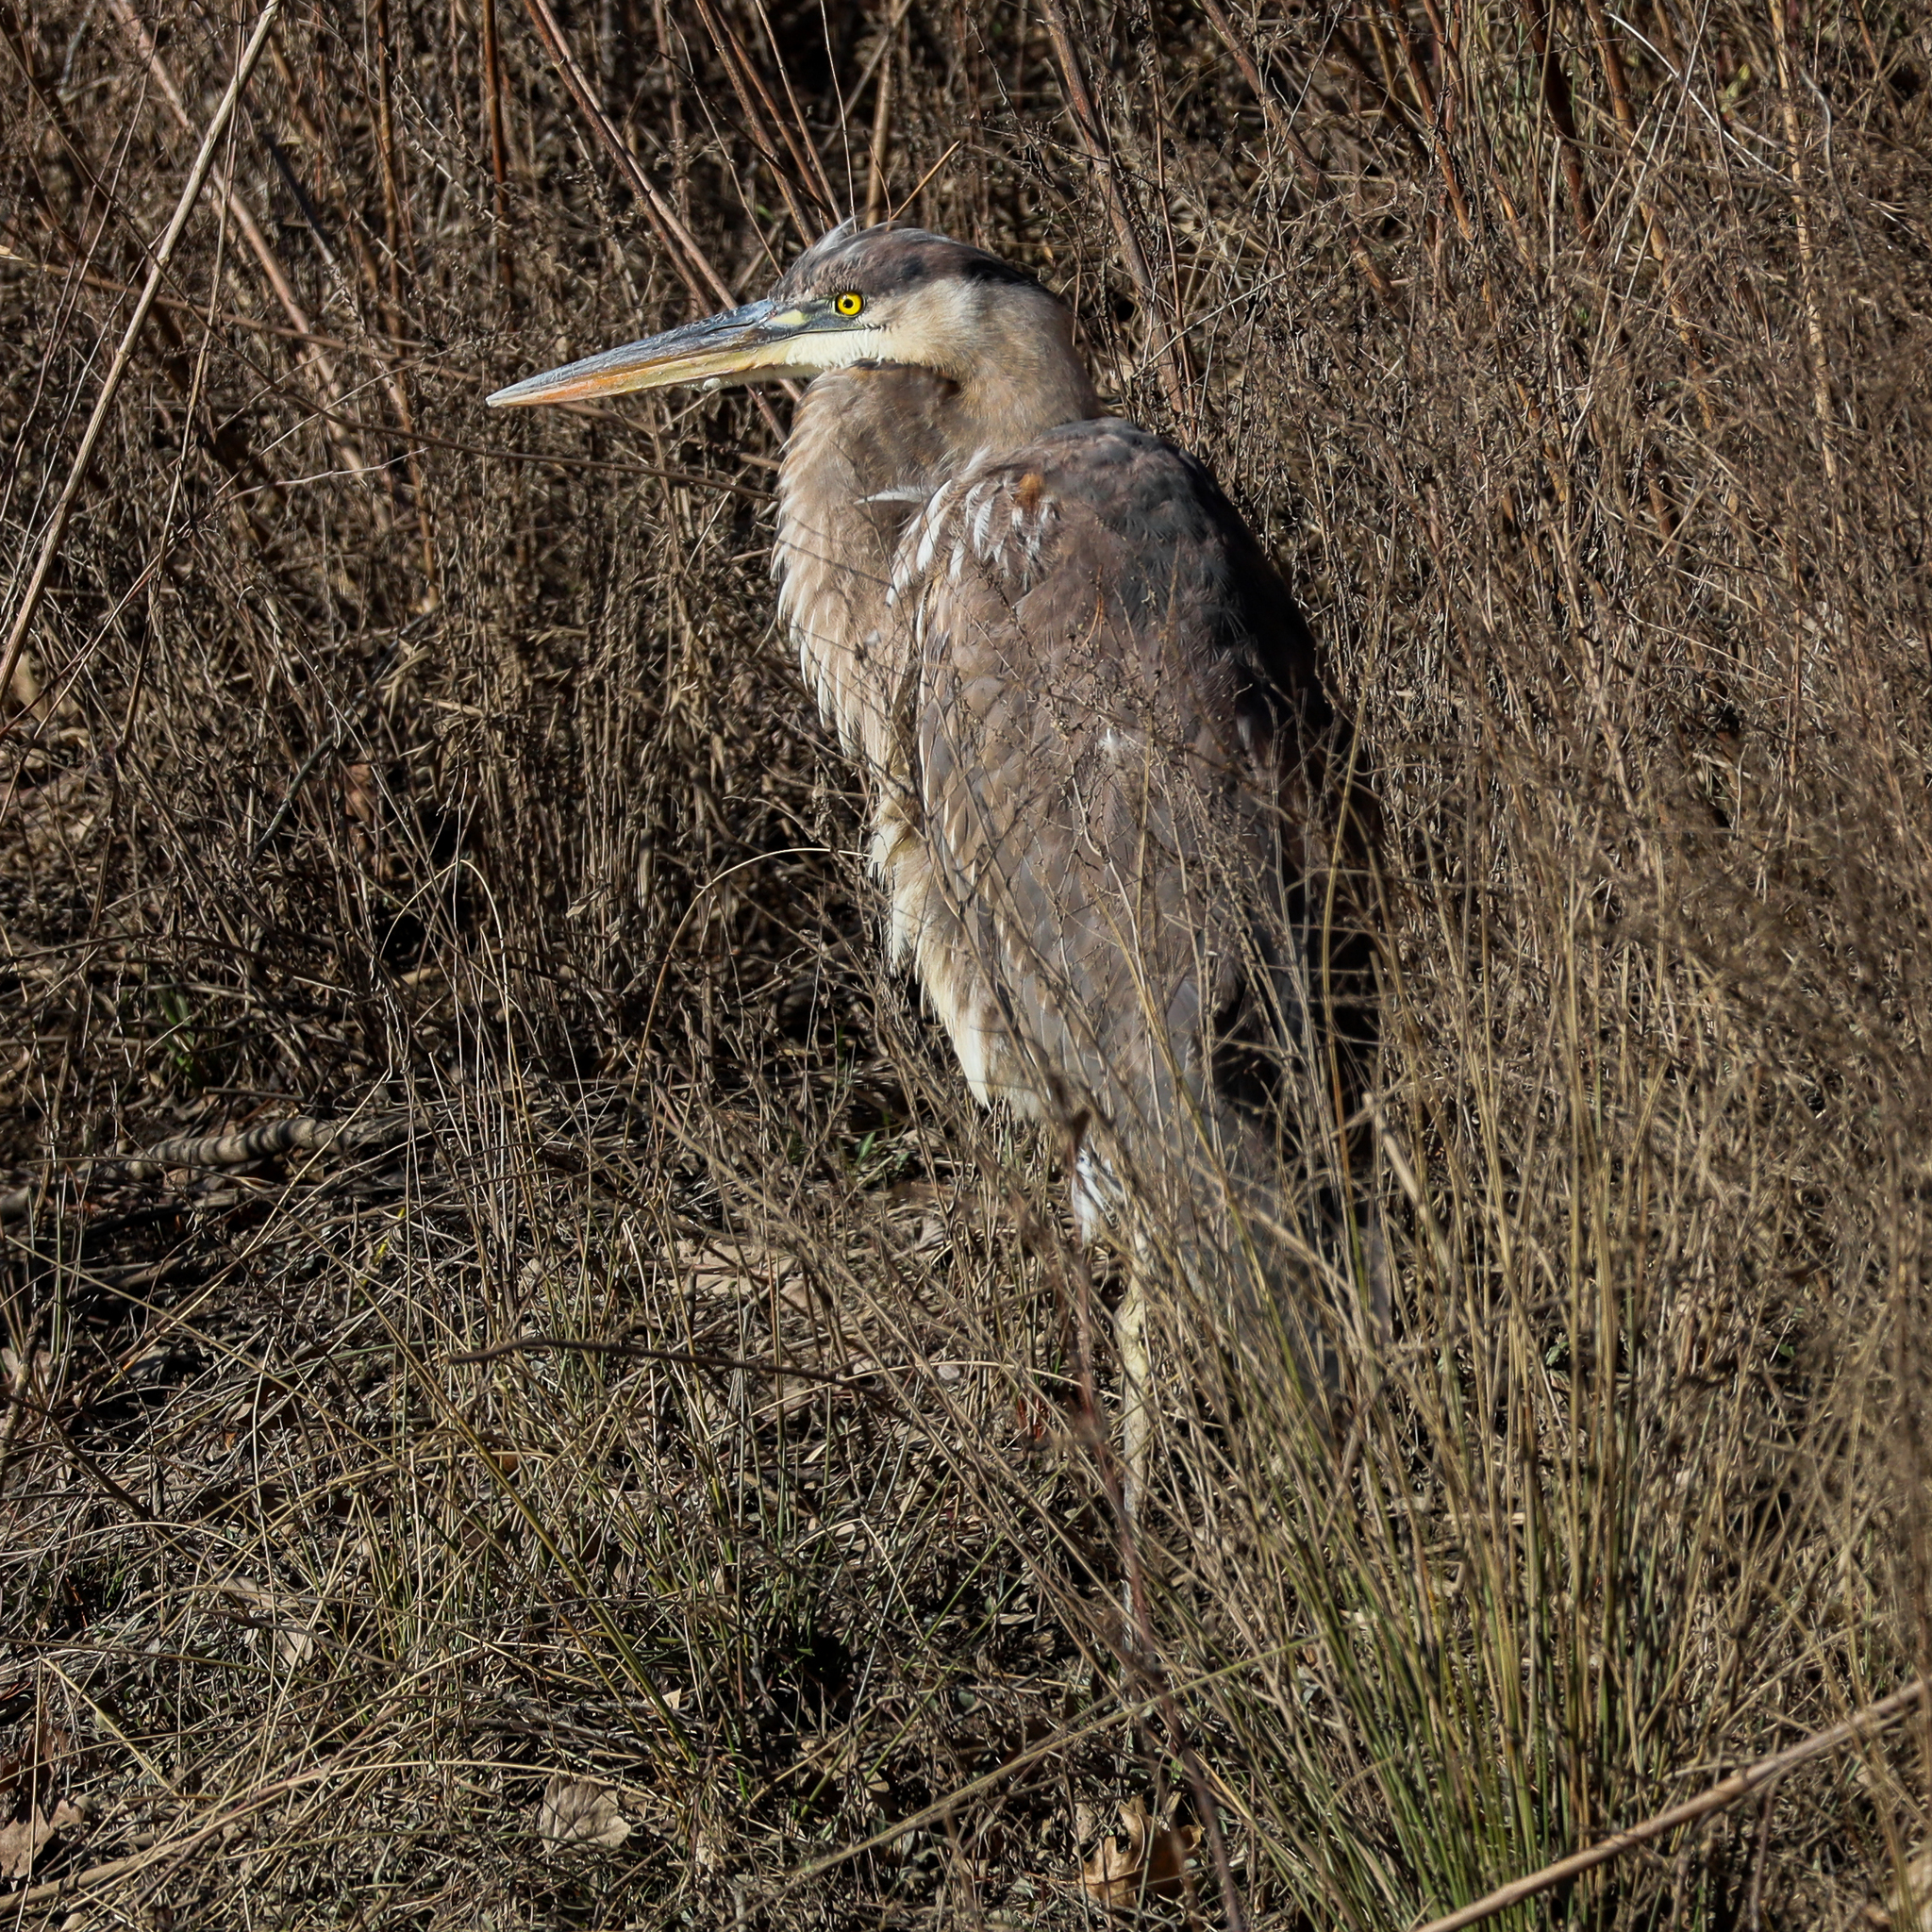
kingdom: Animalia
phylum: Chordata
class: Aves
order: Pelecaniformes
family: Ardeidae
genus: Ardea
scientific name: Ardea herodias
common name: Great blue heron
